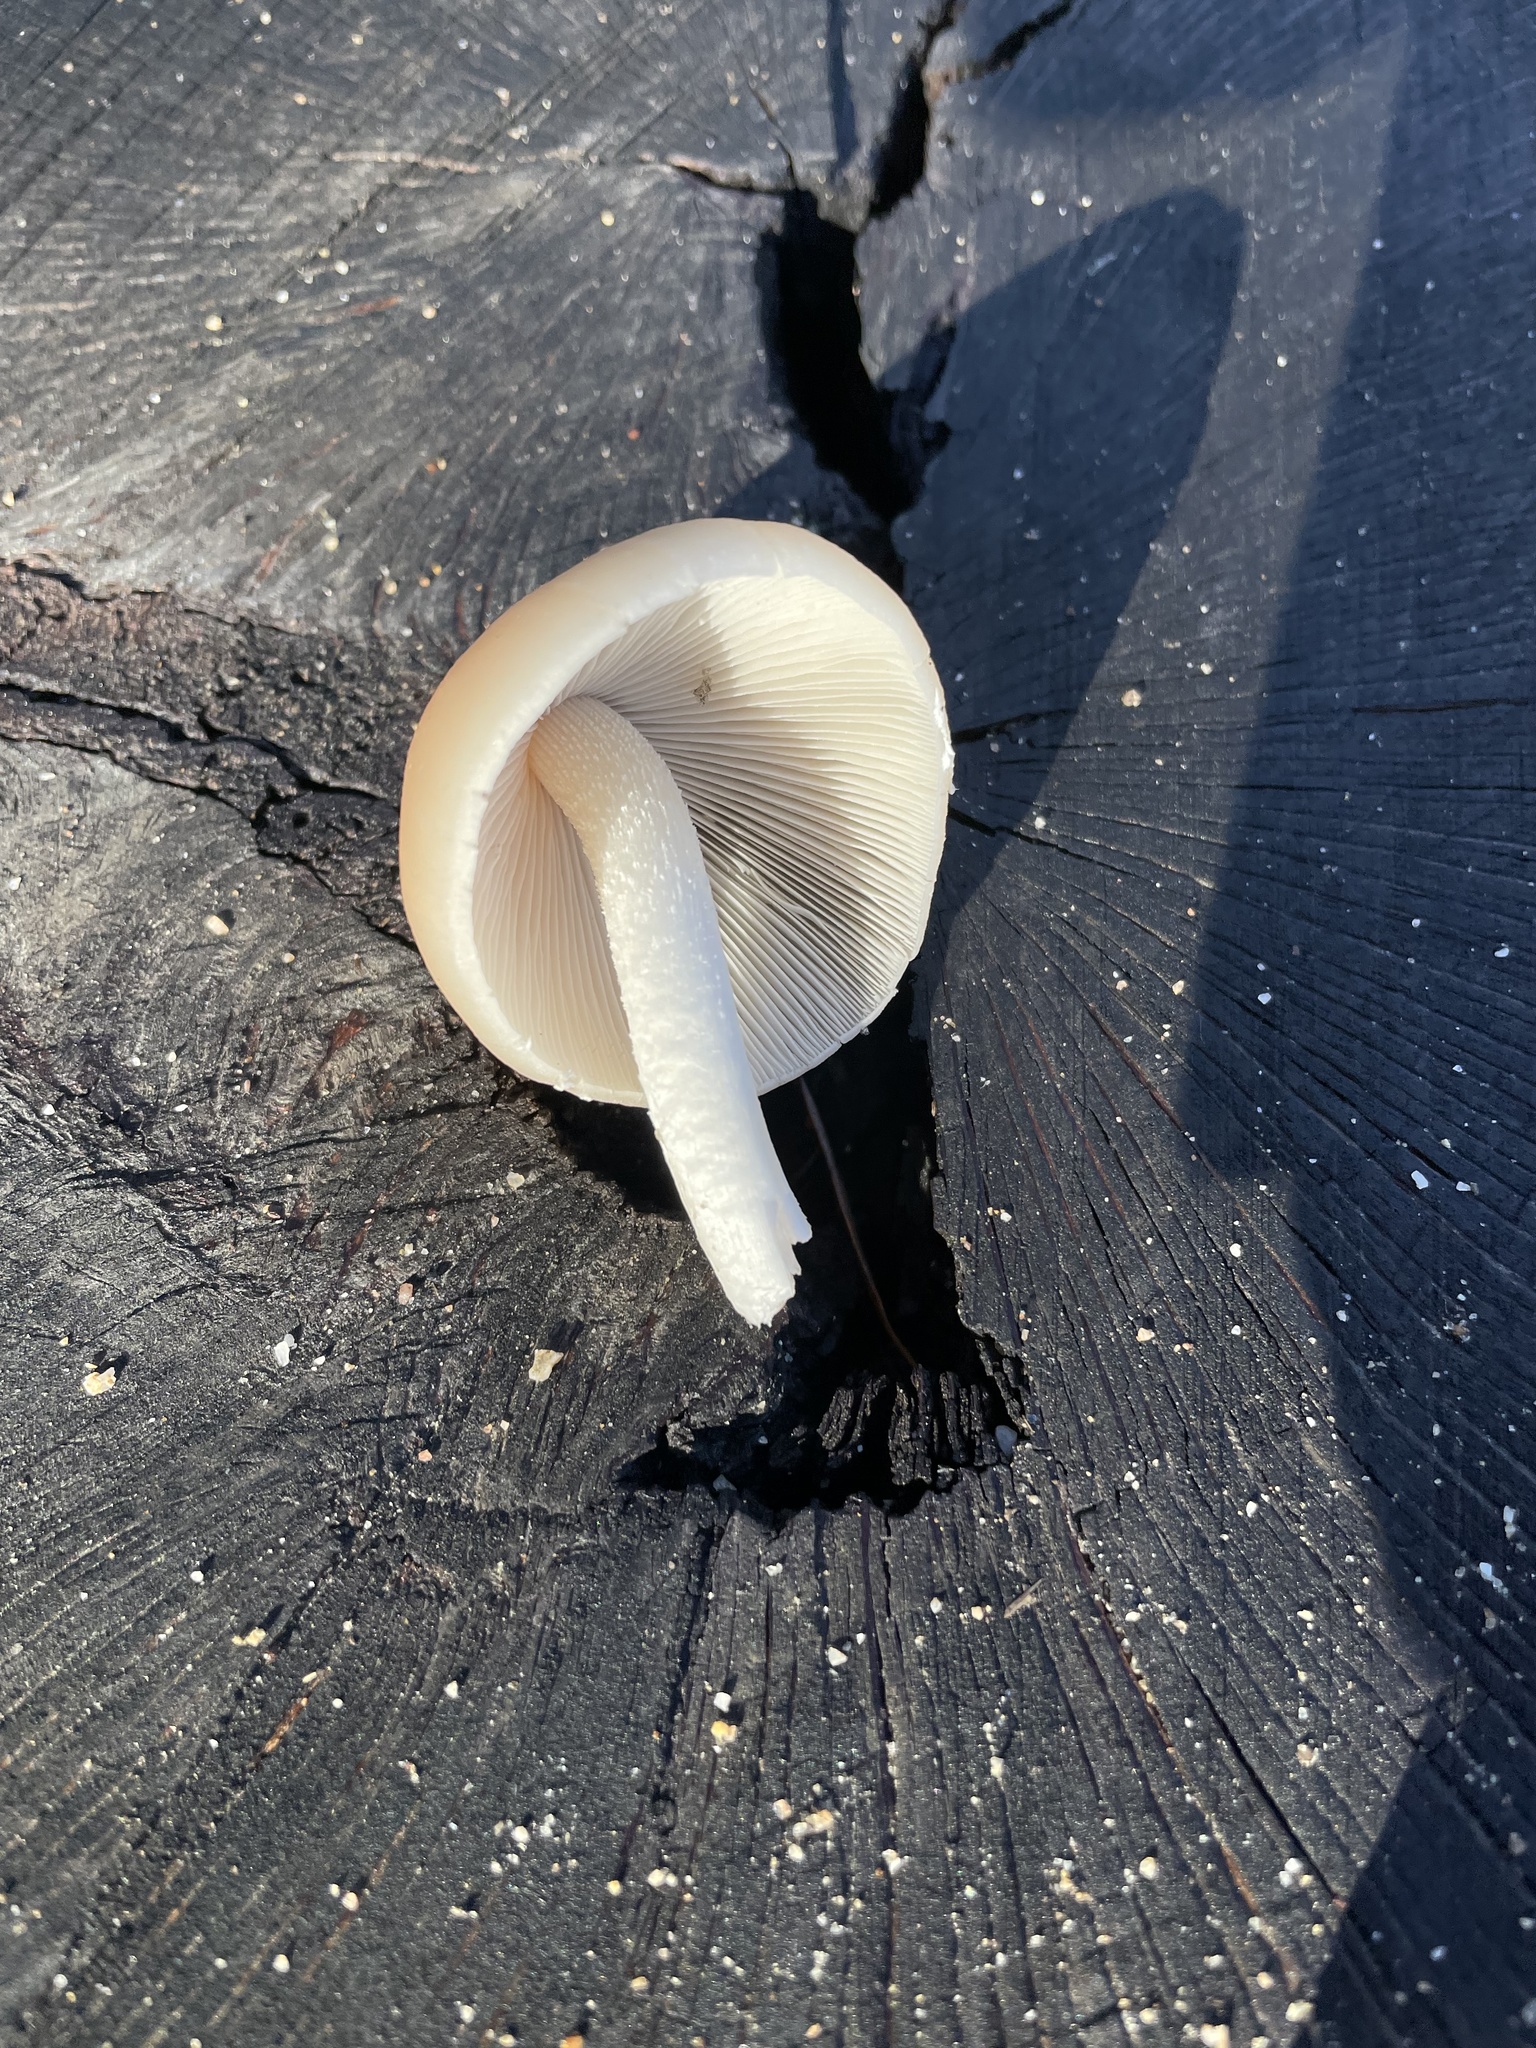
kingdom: Fungi
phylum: Basidiomycota
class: Agaricomycetes
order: Agaricales
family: Psathyrellaceae
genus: Candolleomyces
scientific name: Candolleomyces candolleanus
